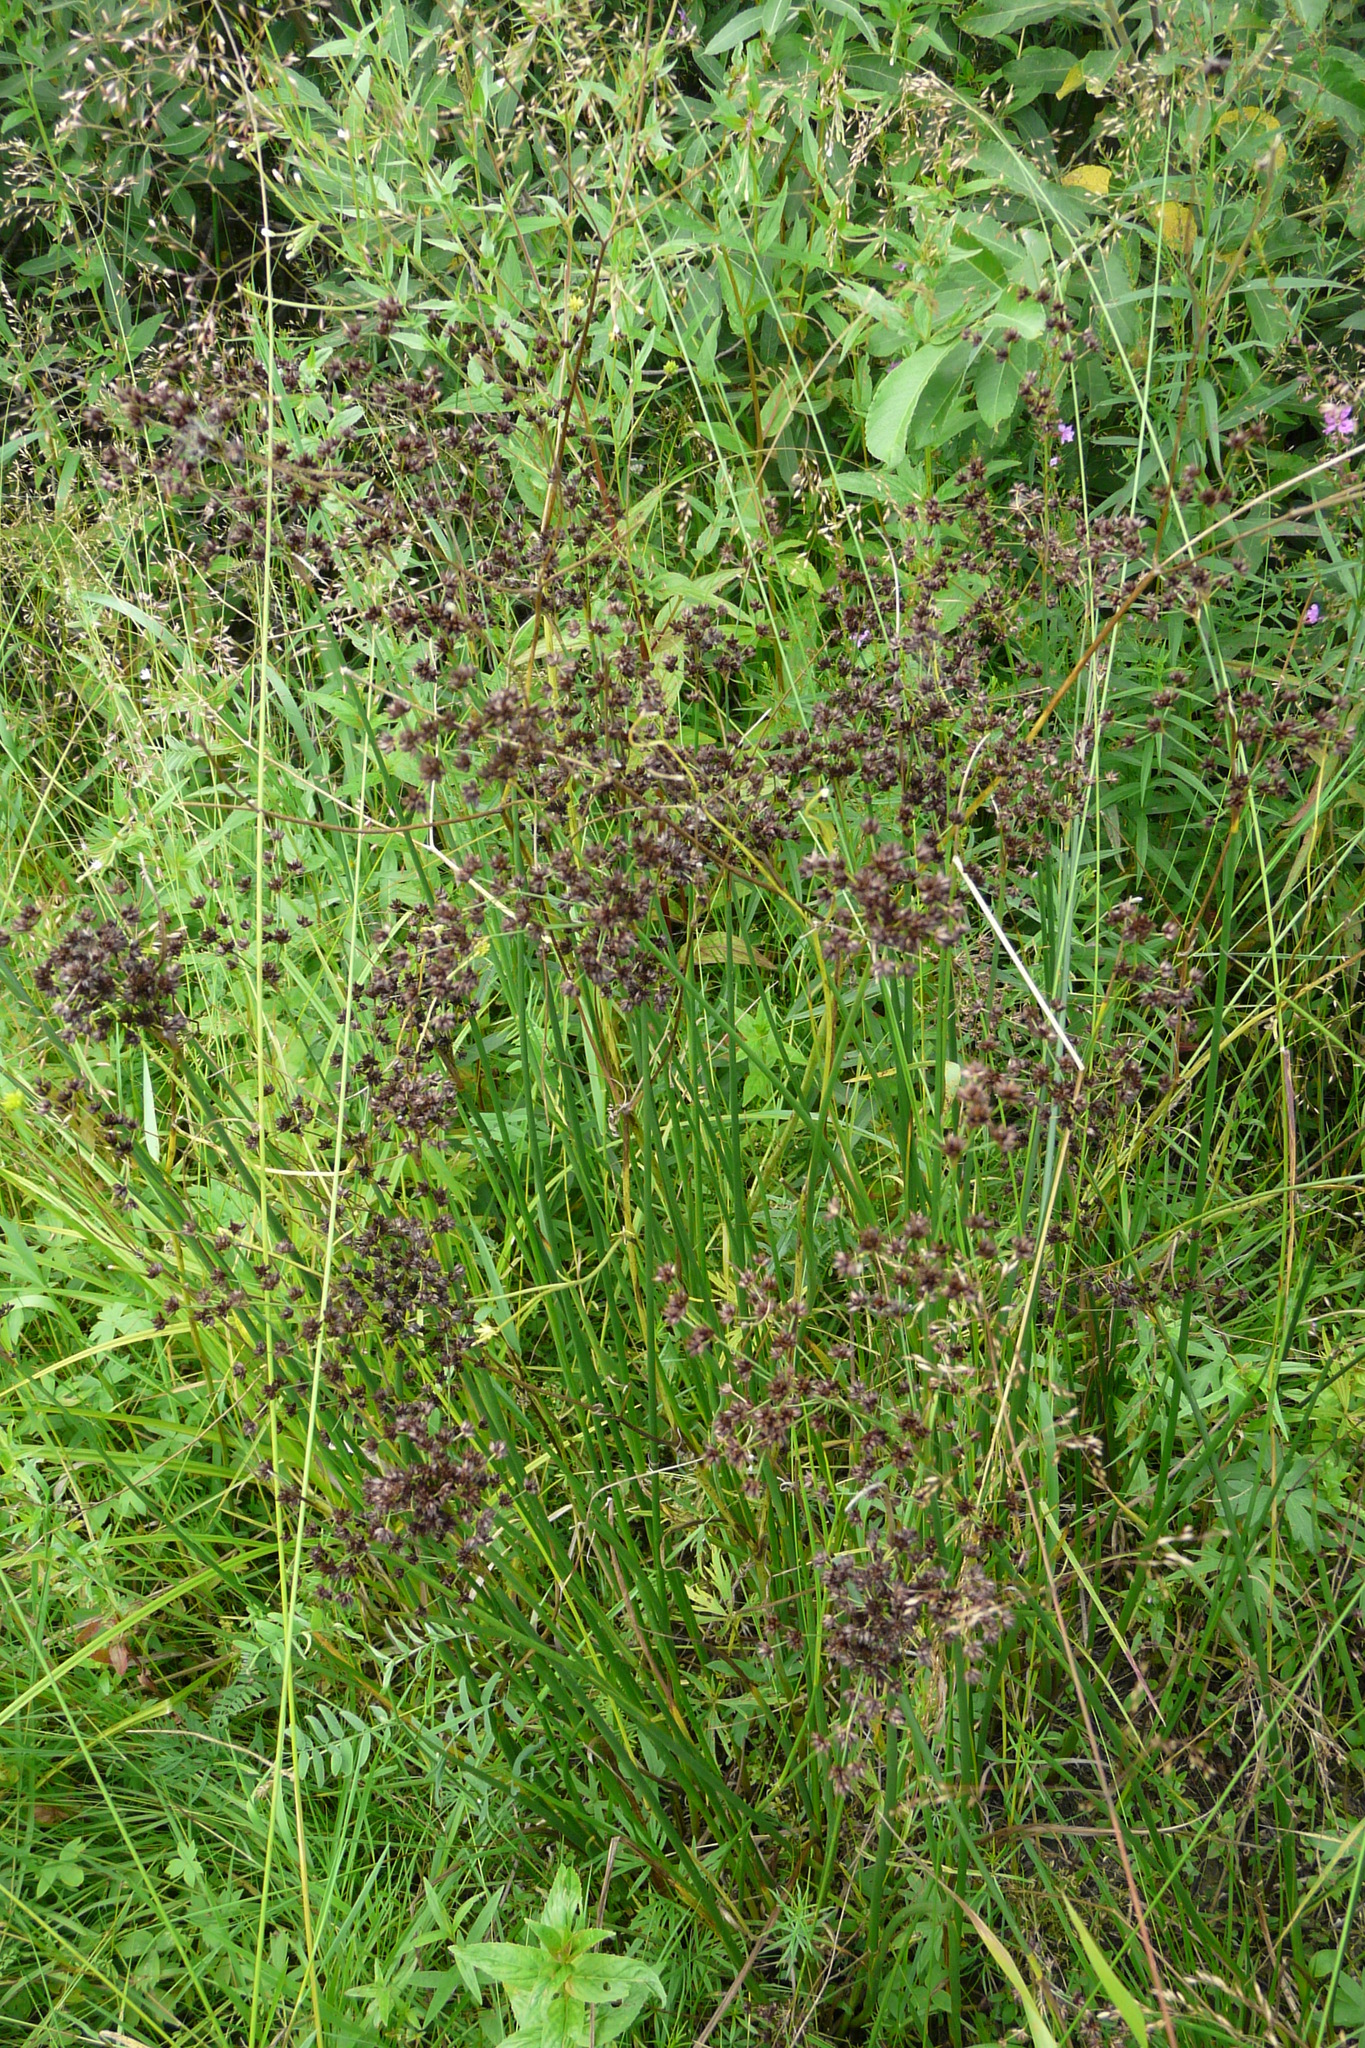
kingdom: Plantae
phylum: Tracheophyta
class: Liliopsida
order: Poales
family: Juncaceae
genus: Juncus
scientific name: Juncus atratus
